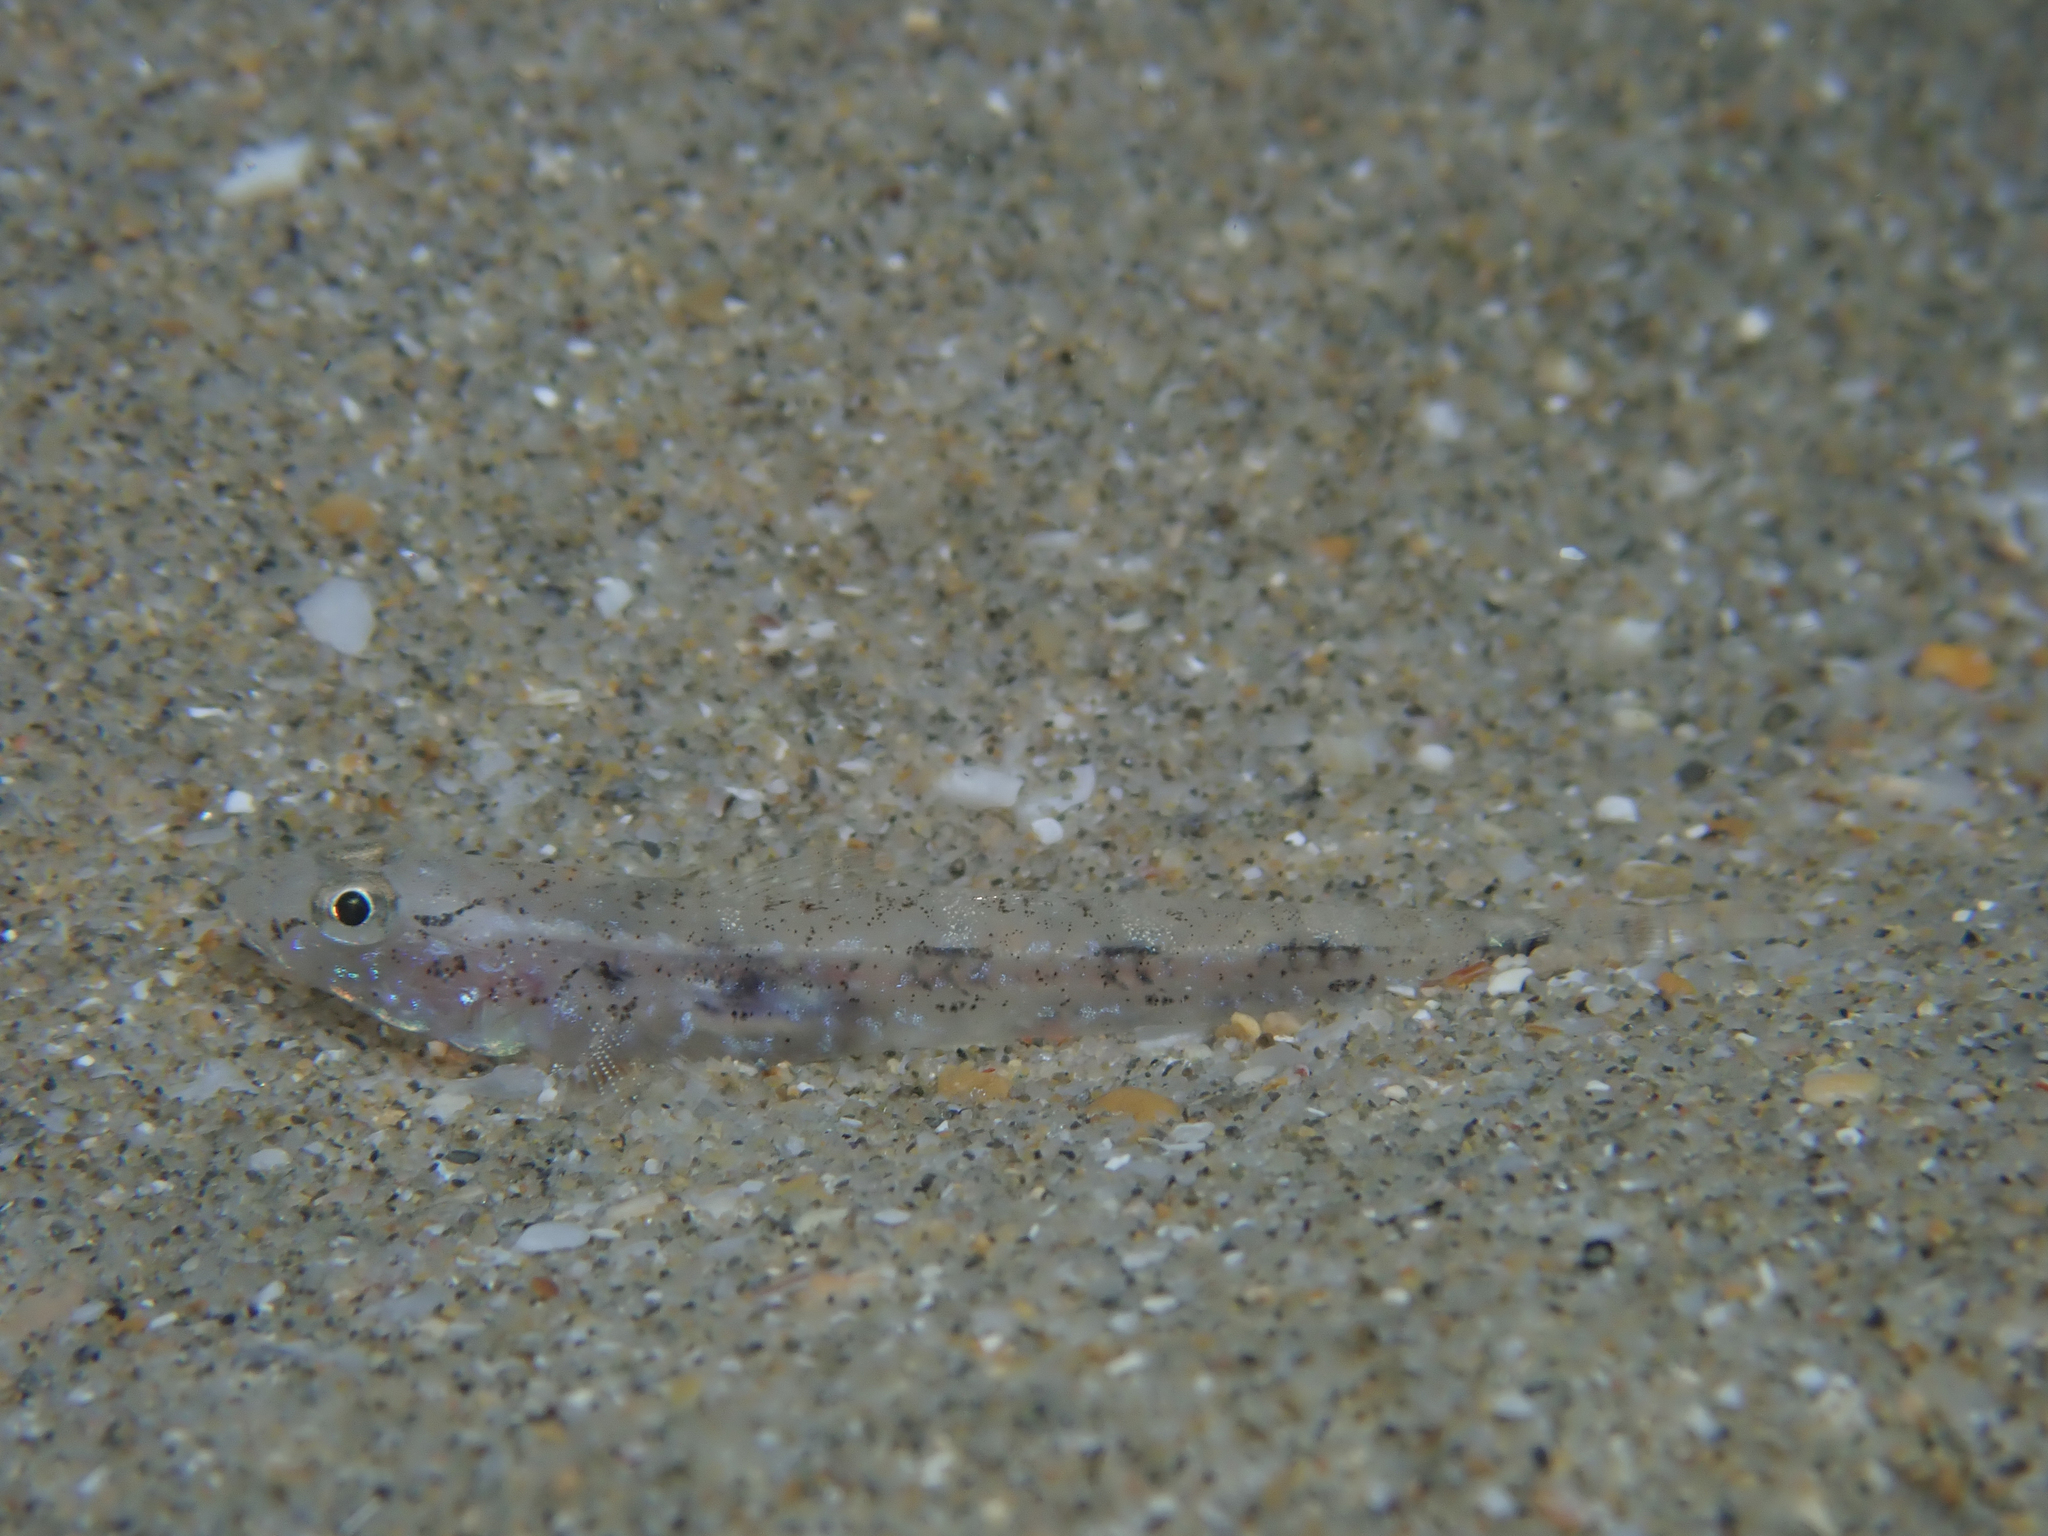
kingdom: Animalia
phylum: Chordata
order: Perciformes
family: Gobiidae
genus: Pomatoschistus
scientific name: Pomatoschistus marmoratus
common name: Marbled goby
